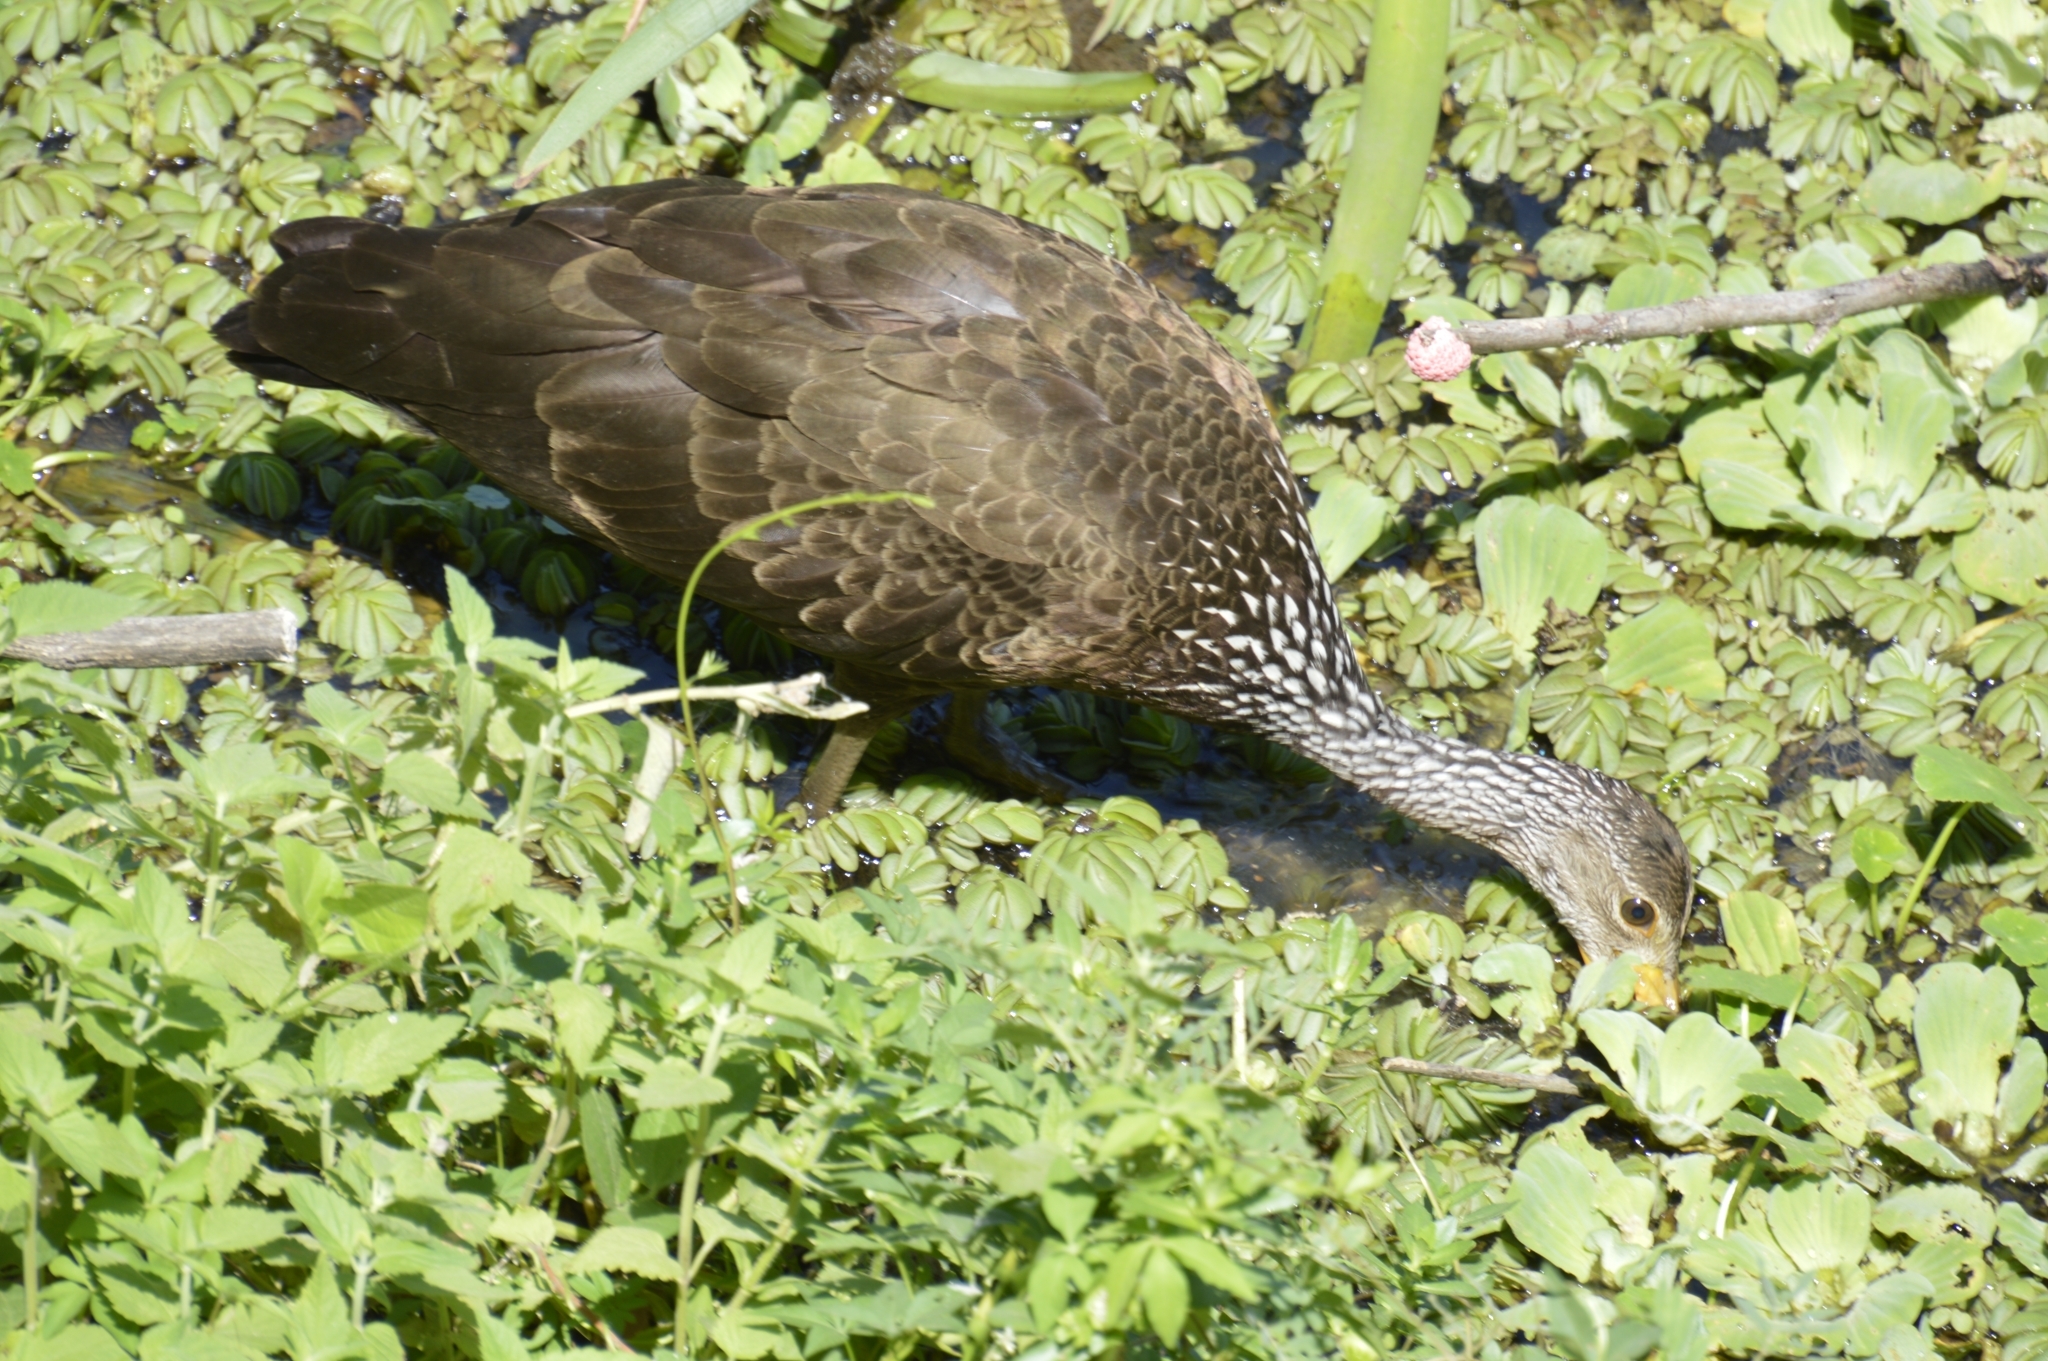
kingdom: Animalia
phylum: Chordata
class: Aves
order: Gruiformes
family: Aramidae
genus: Aramus
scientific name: Aramus guarauna
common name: Limpkin
